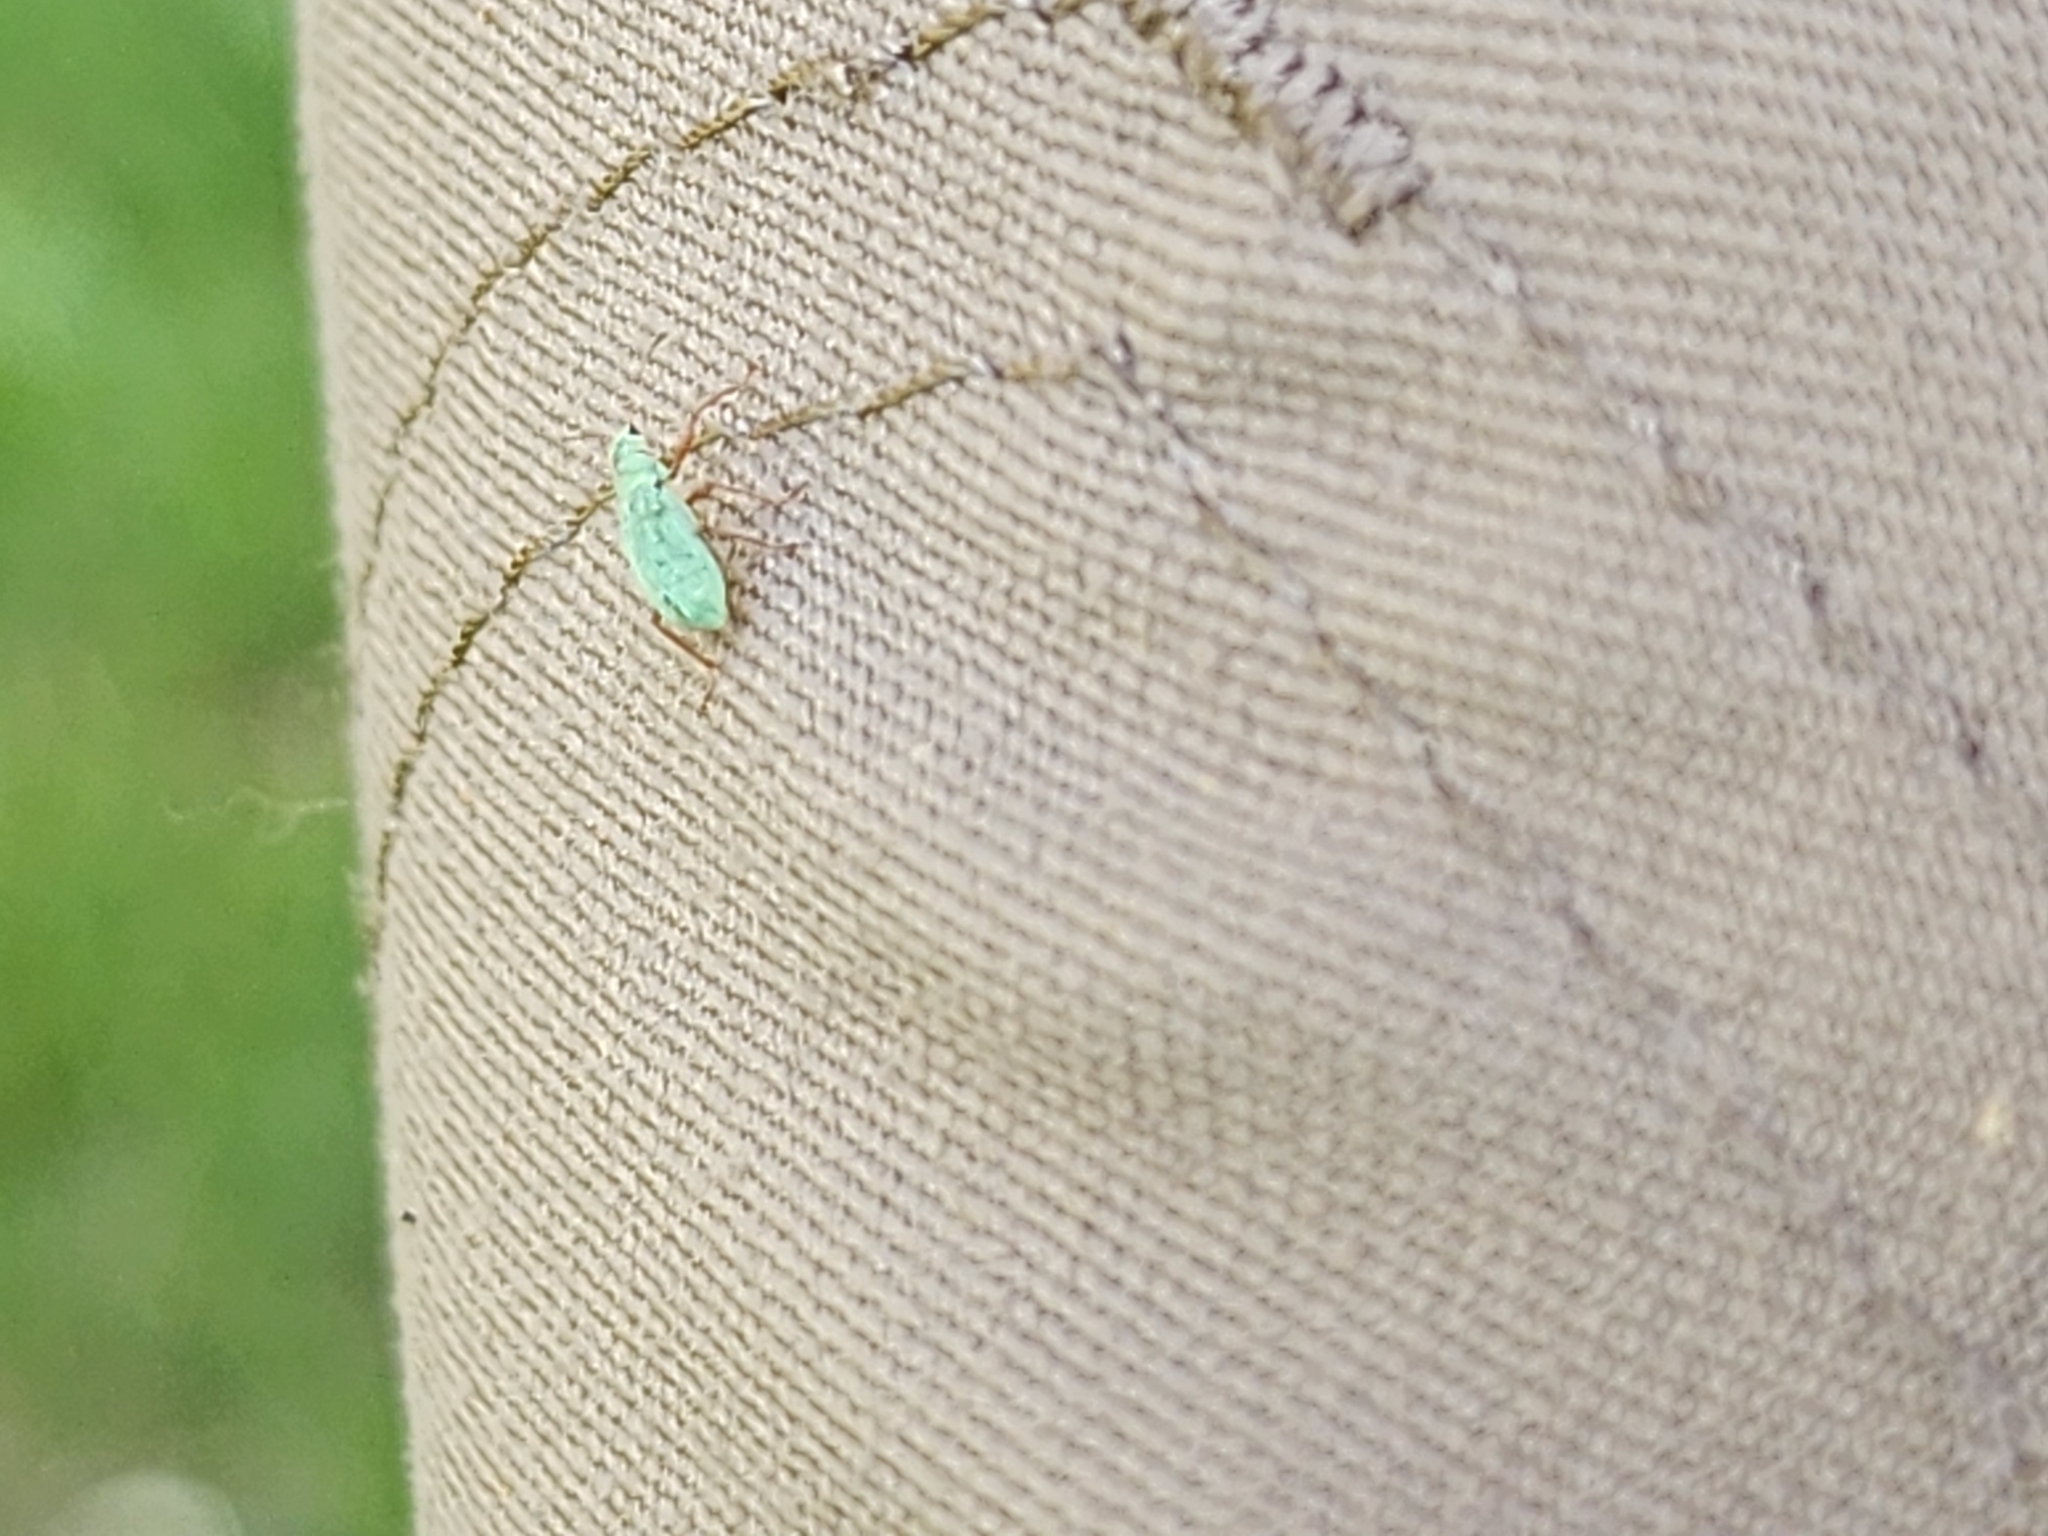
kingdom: Animalia
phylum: Arthropoda
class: Insecta
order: Coleoptera
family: Curculionidae
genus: Polydrusus
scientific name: Polydrusus impressifrons
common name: Weevil
